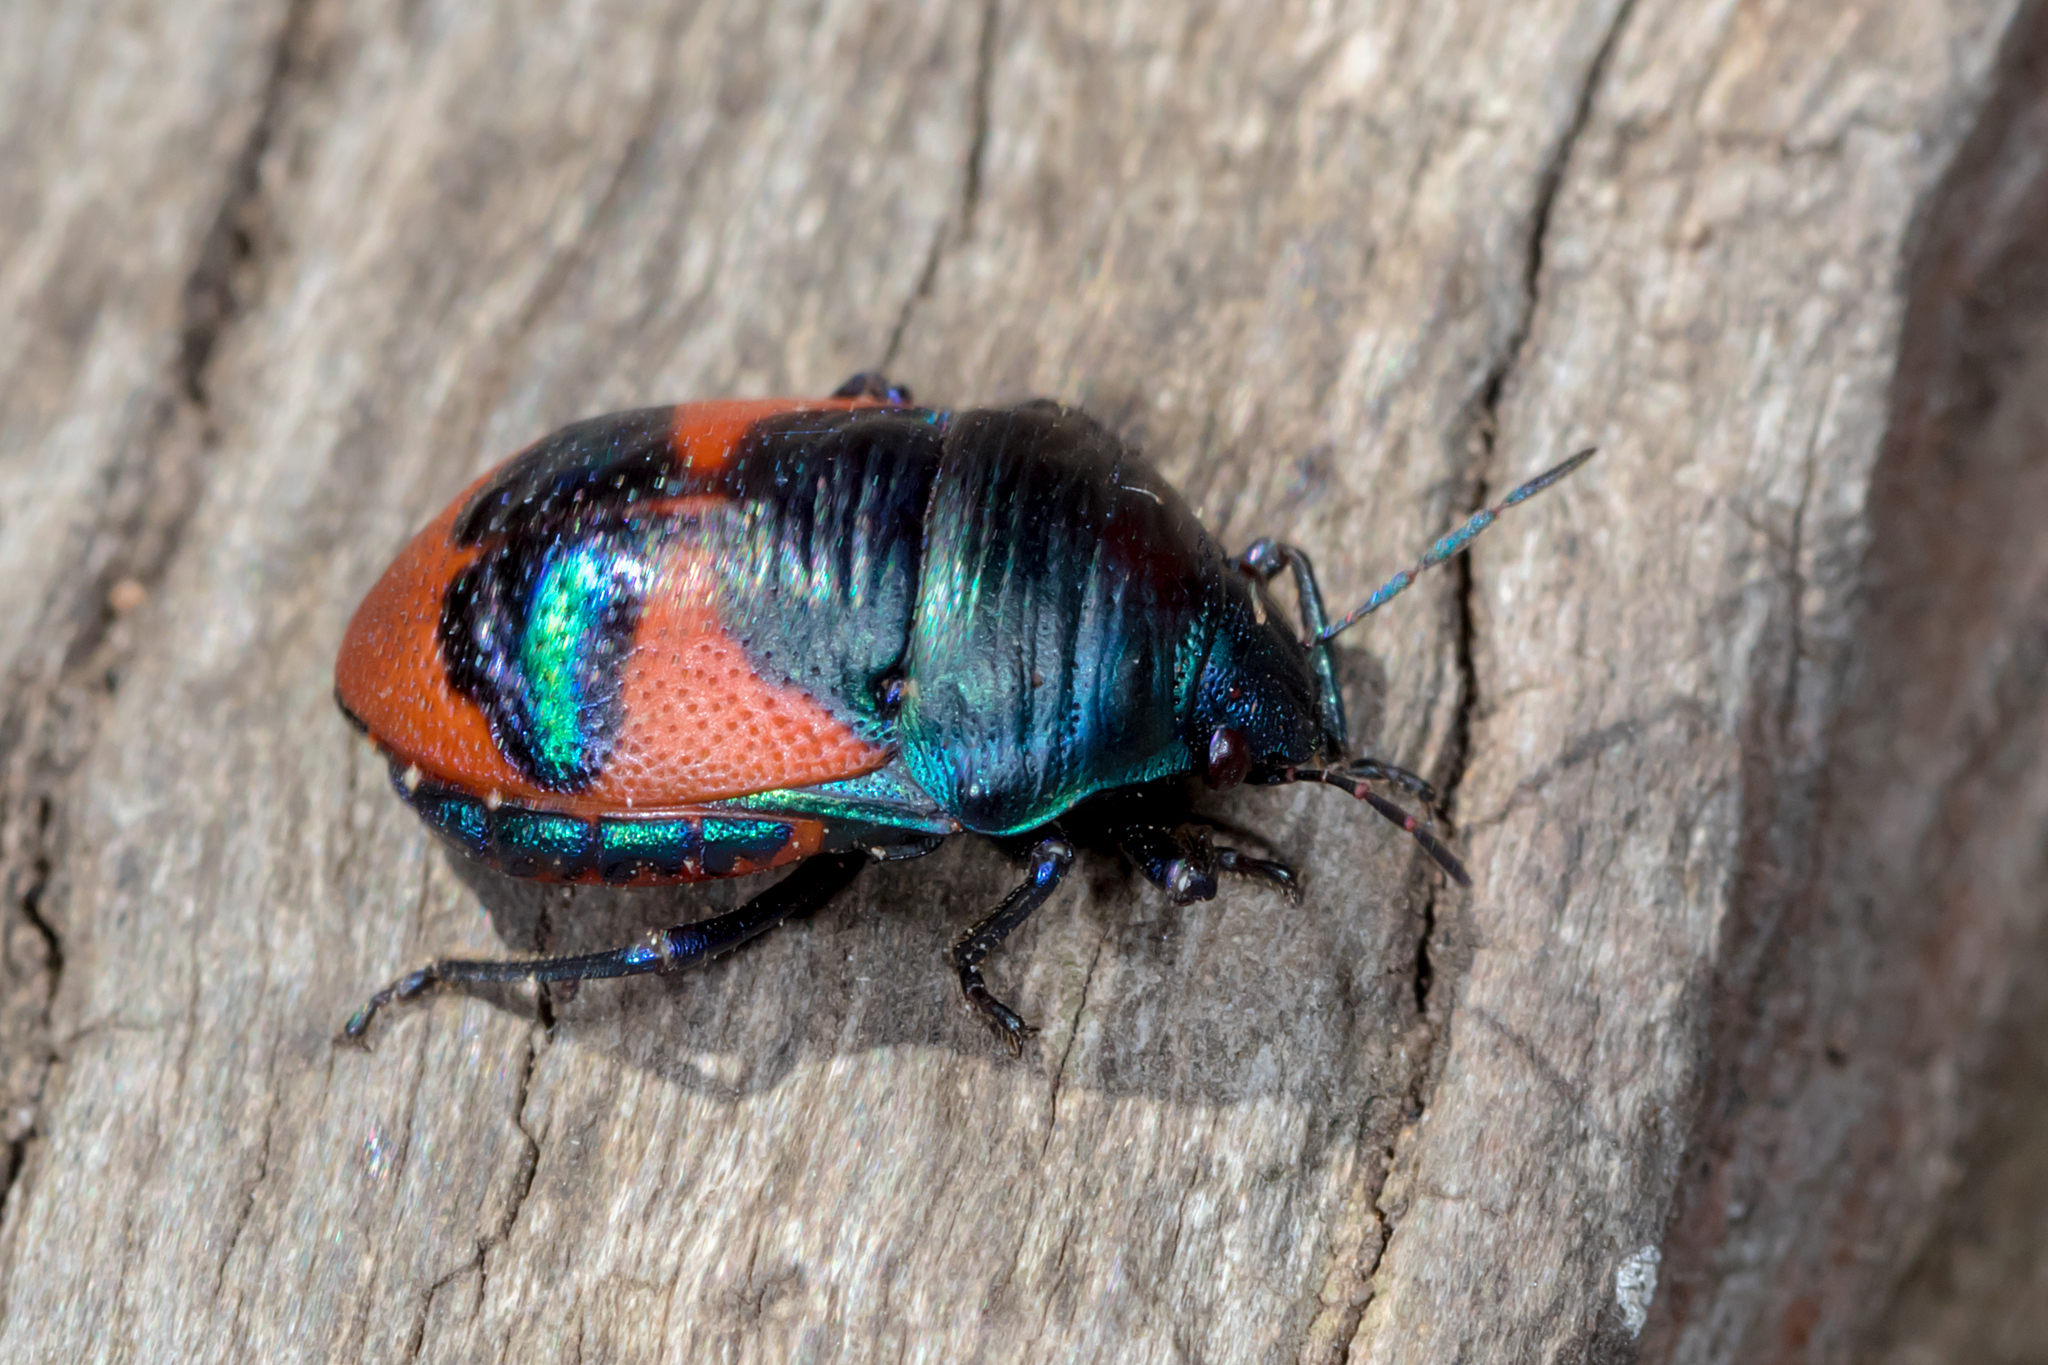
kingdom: Animalia
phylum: Arthropoda
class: Insecta
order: Hemiptera
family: Scutelleridae
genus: Choerocoris
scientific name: Choerocoris paganus
